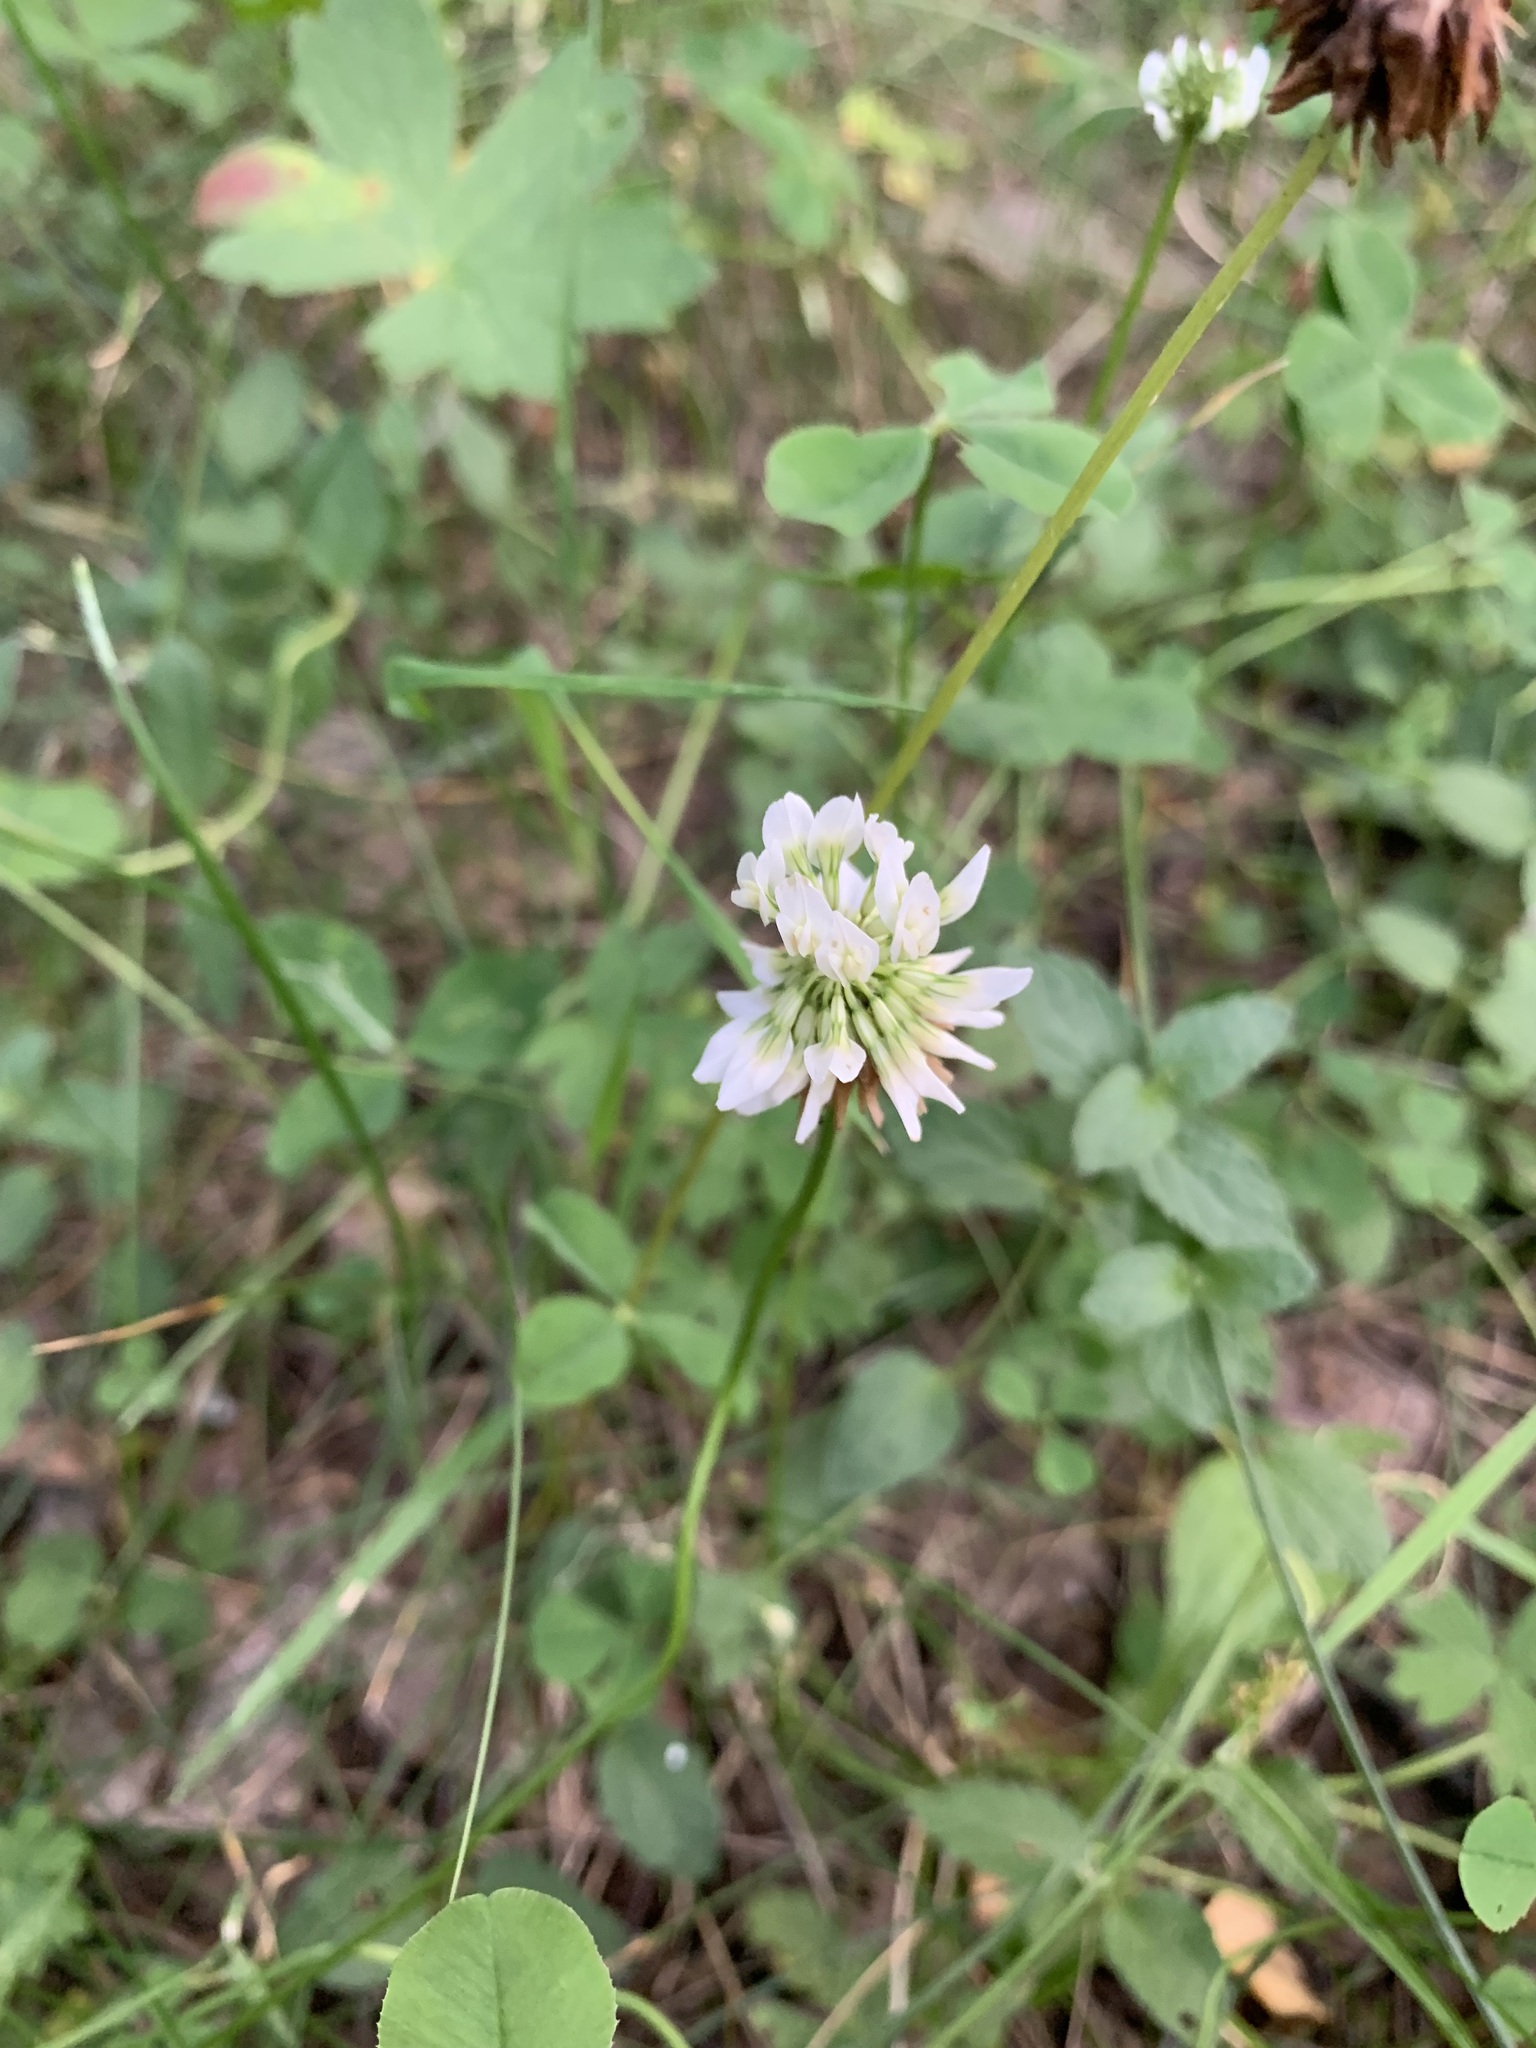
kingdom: Plantae
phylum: Tracheophyta
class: Magnoliopsida
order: Fabales
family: Fabaceae
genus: Trifolium
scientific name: Trifolium repens
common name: White clover
